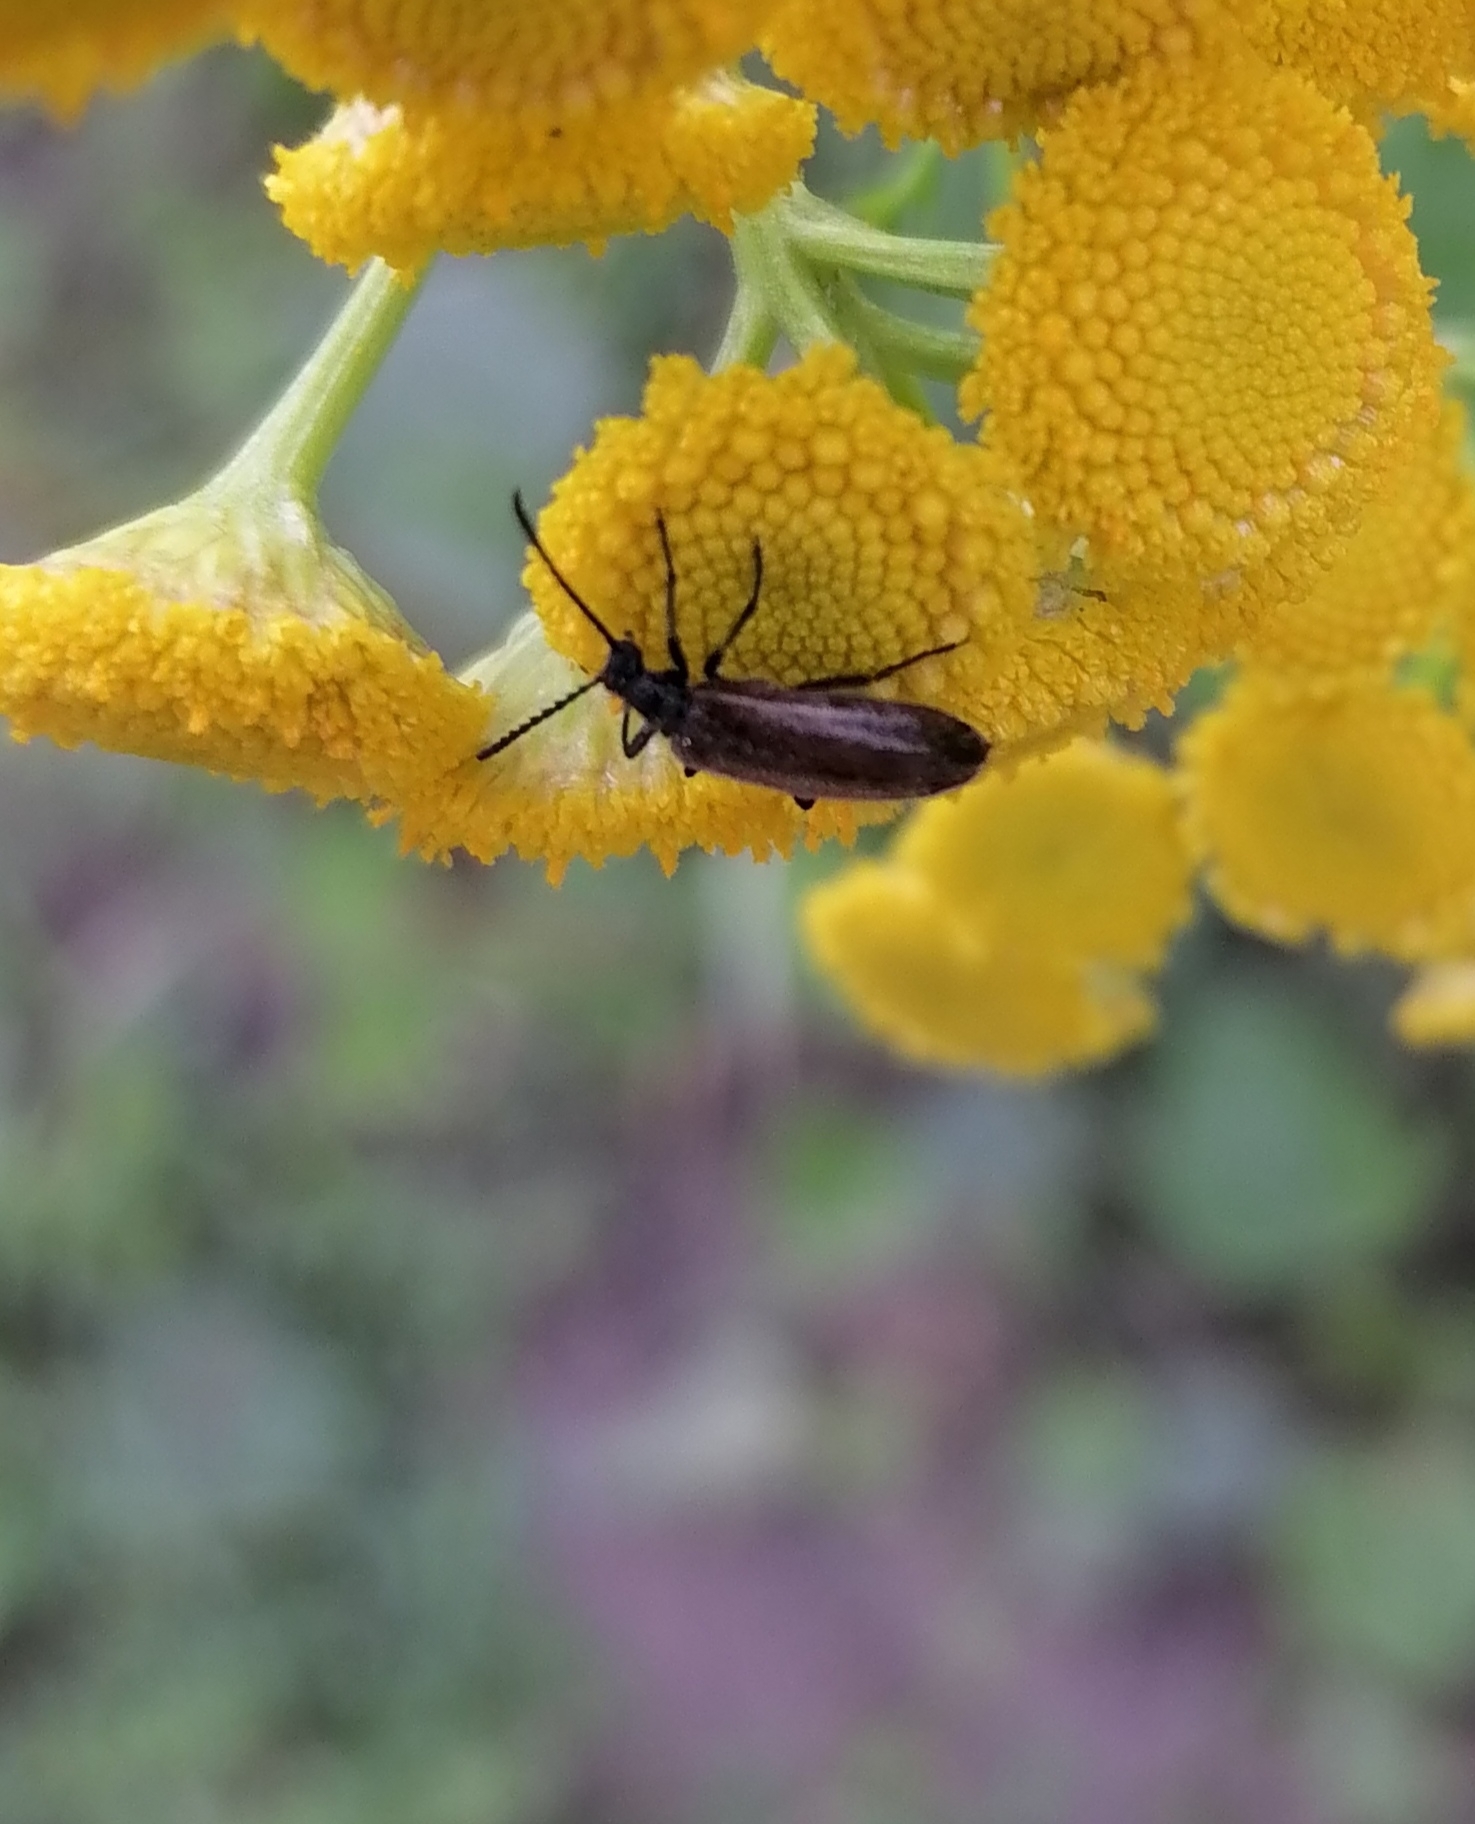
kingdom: Animalia
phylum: Arthropoda
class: Insecta
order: Coleoptera
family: Tenebrionidae
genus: Lagria
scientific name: Lagria hirta
